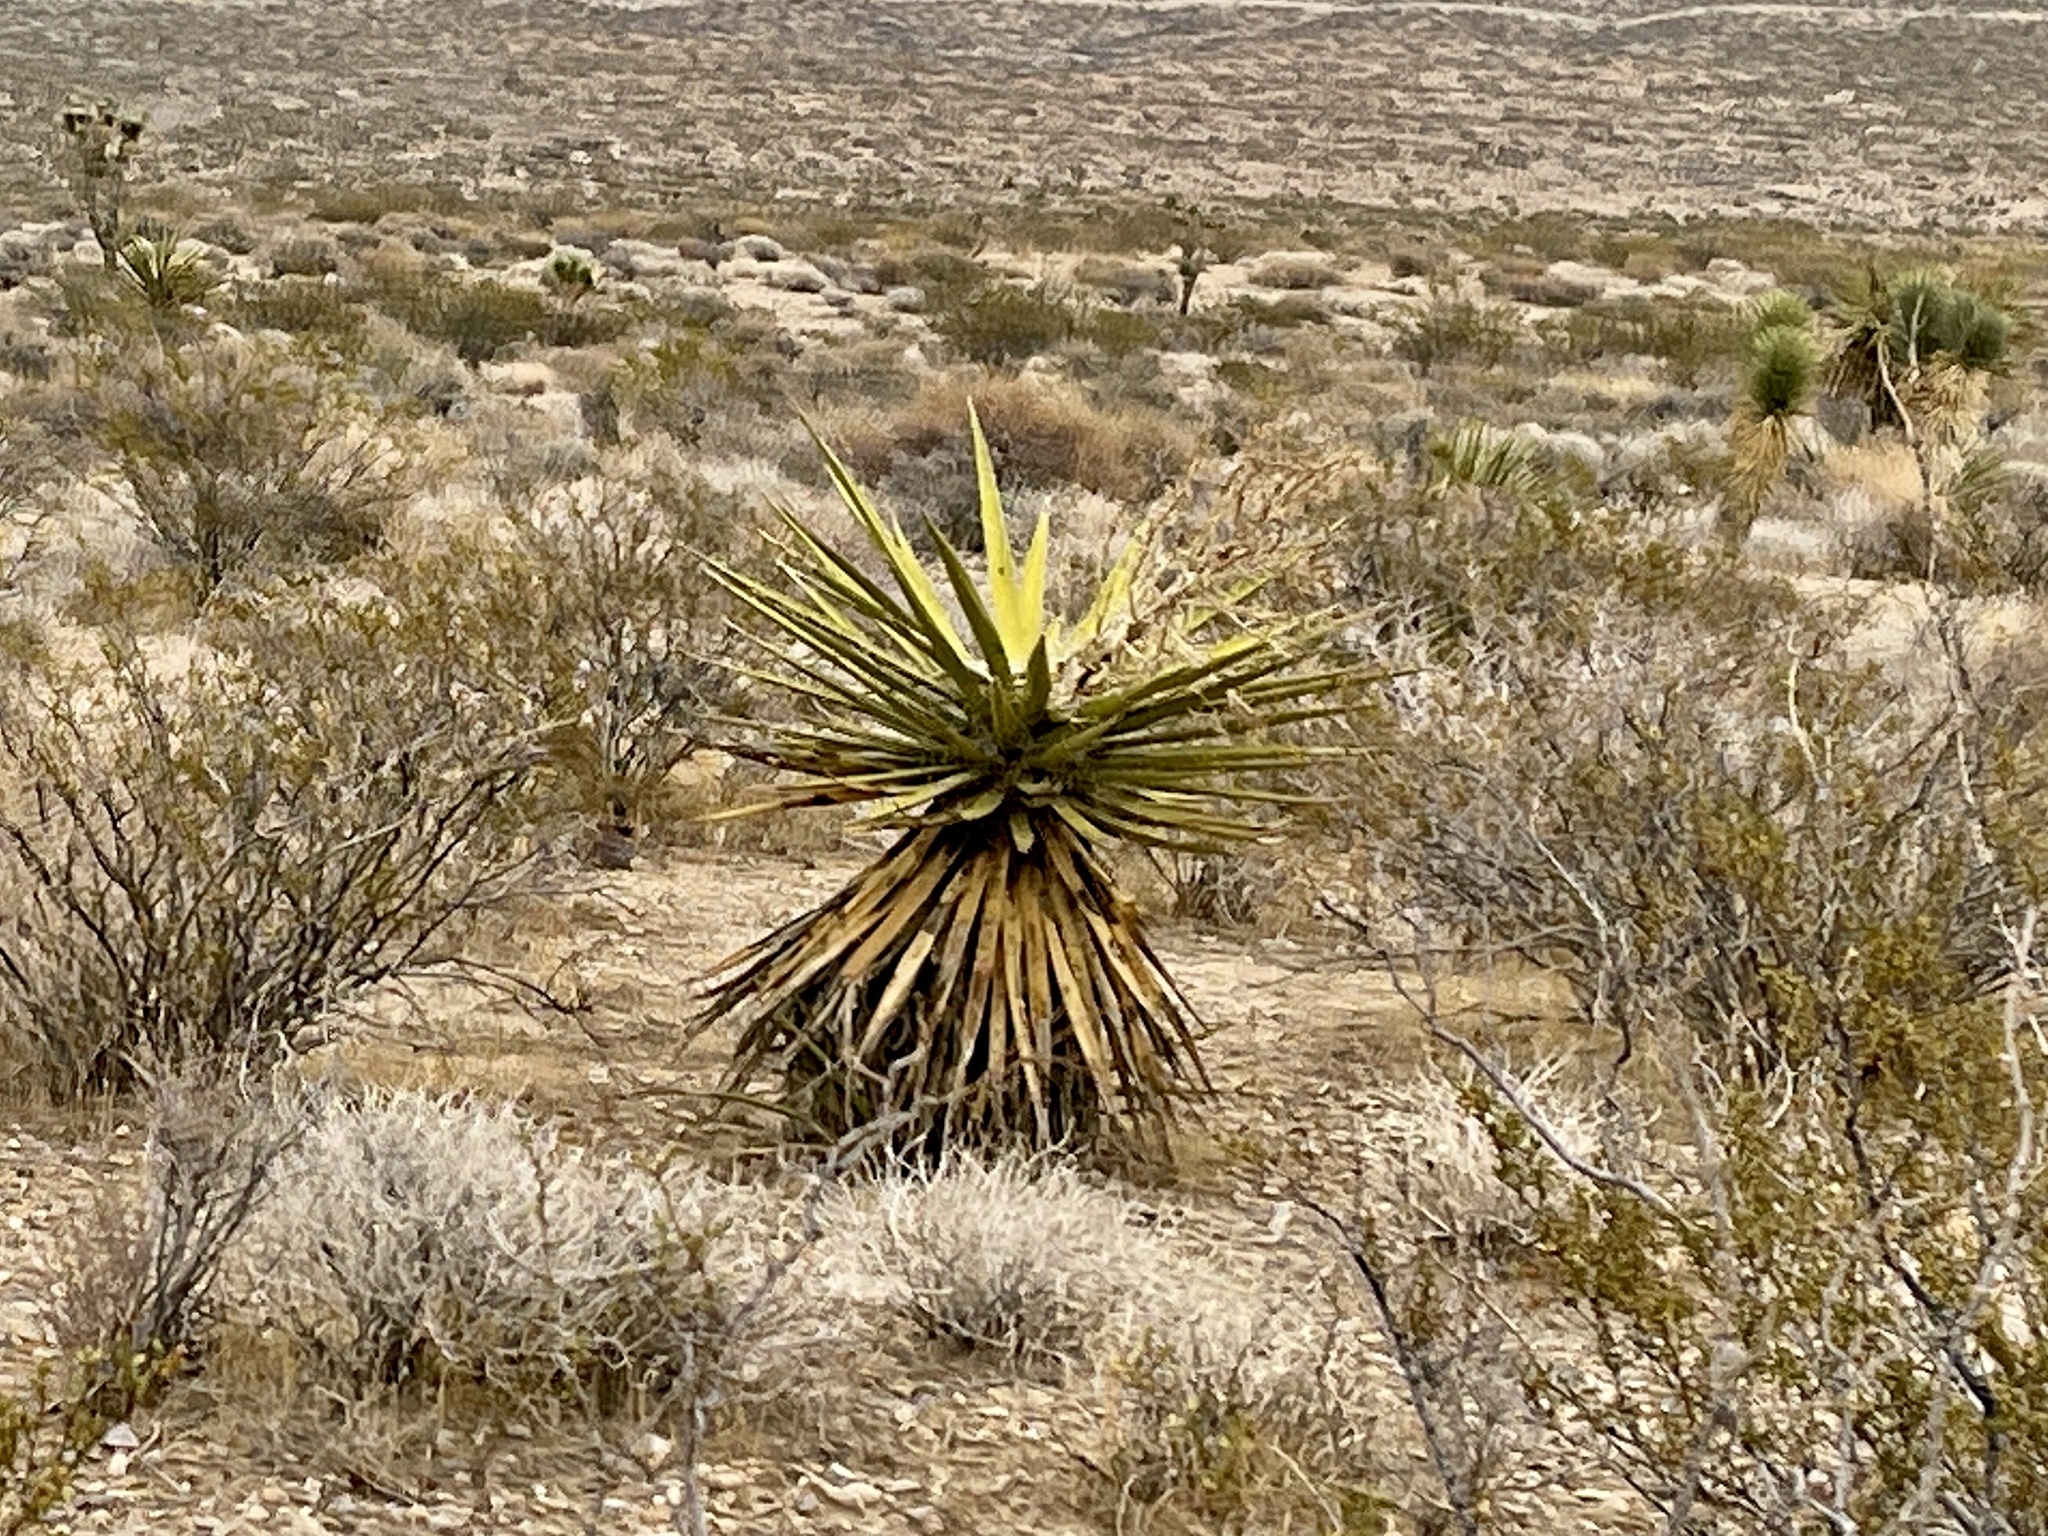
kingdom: Plantae
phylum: Tracheophyta
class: Liliopsida
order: Asparagales
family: Asparagaceae
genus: Yucca
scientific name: Yucca schidigera
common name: Mojave yucca
